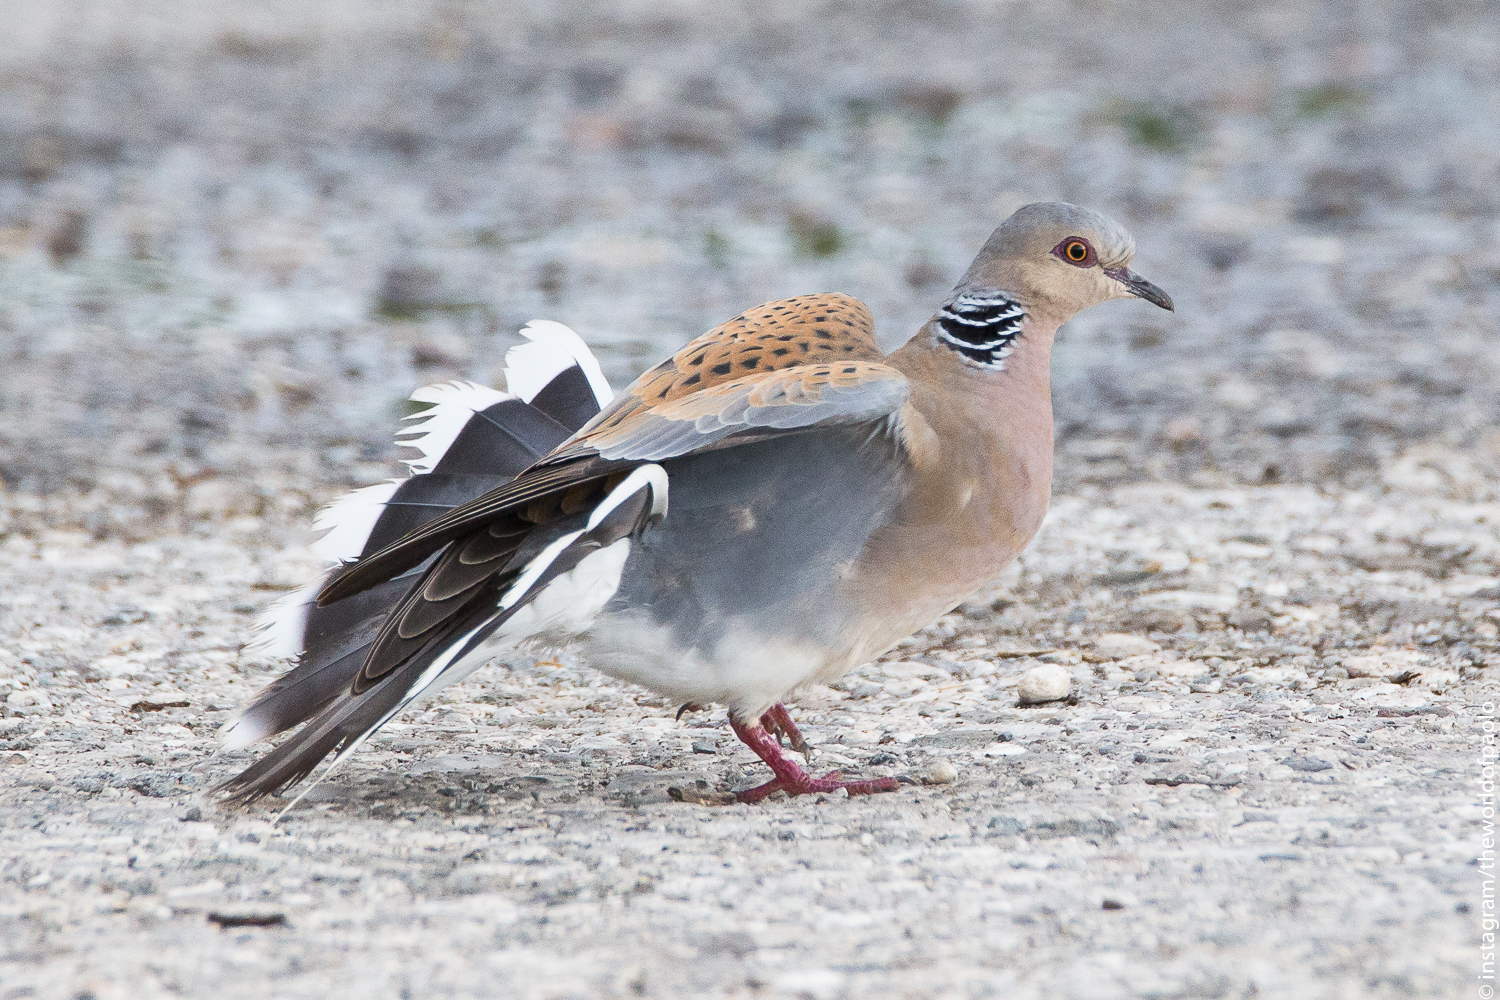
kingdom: Animalia
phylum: Chordata
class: Aves
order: Columbiformes
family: Columbidae
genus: Streptopelia
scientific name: Streptopelia turtur
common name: European turtle dove
